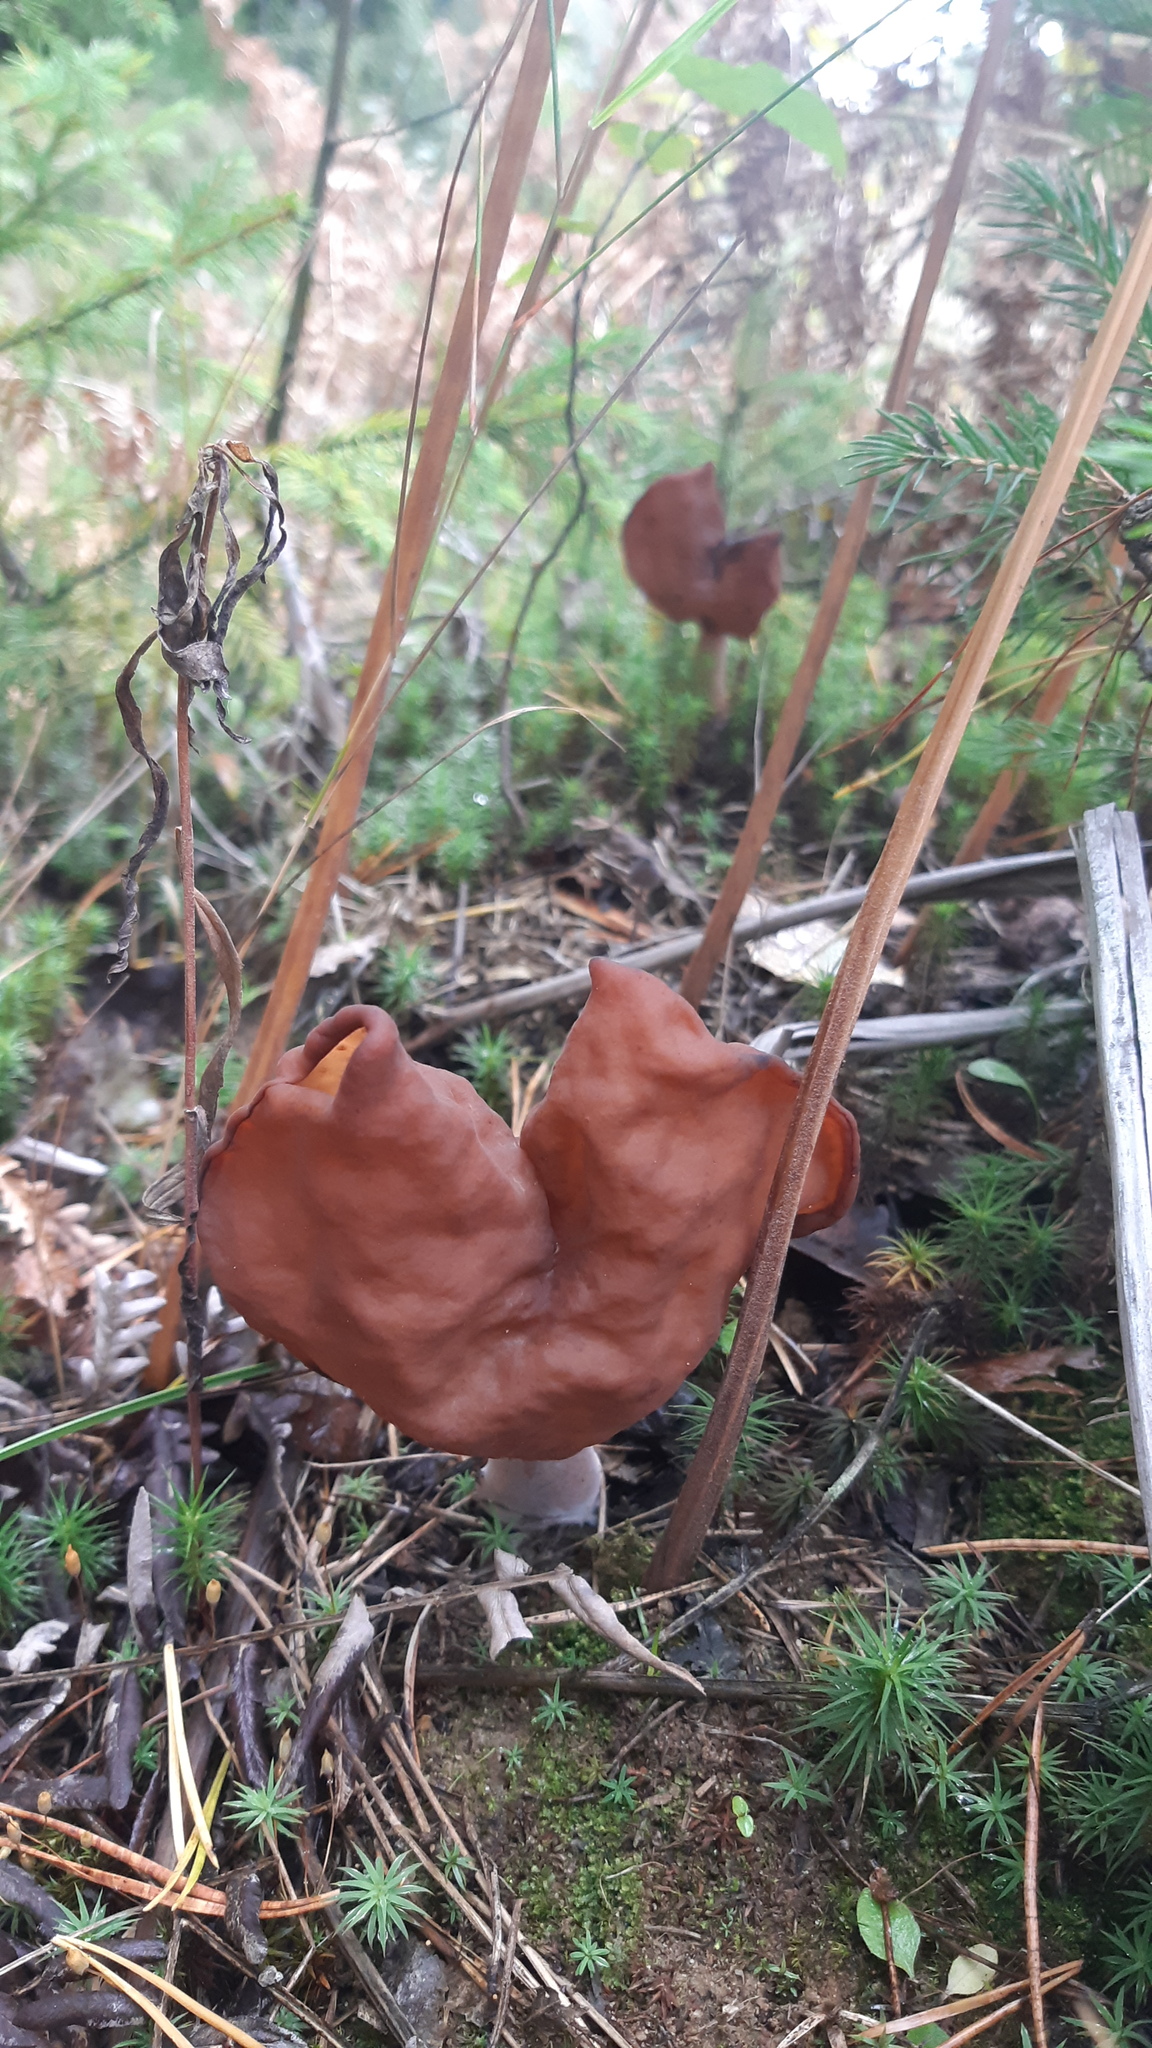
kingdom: Fungi
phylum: Ascomycota
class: Pezizomycetes
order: Pezizales
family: Discinaceae
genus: Gyromitra
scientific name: Gyromitra infula
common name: Pouched false morel
